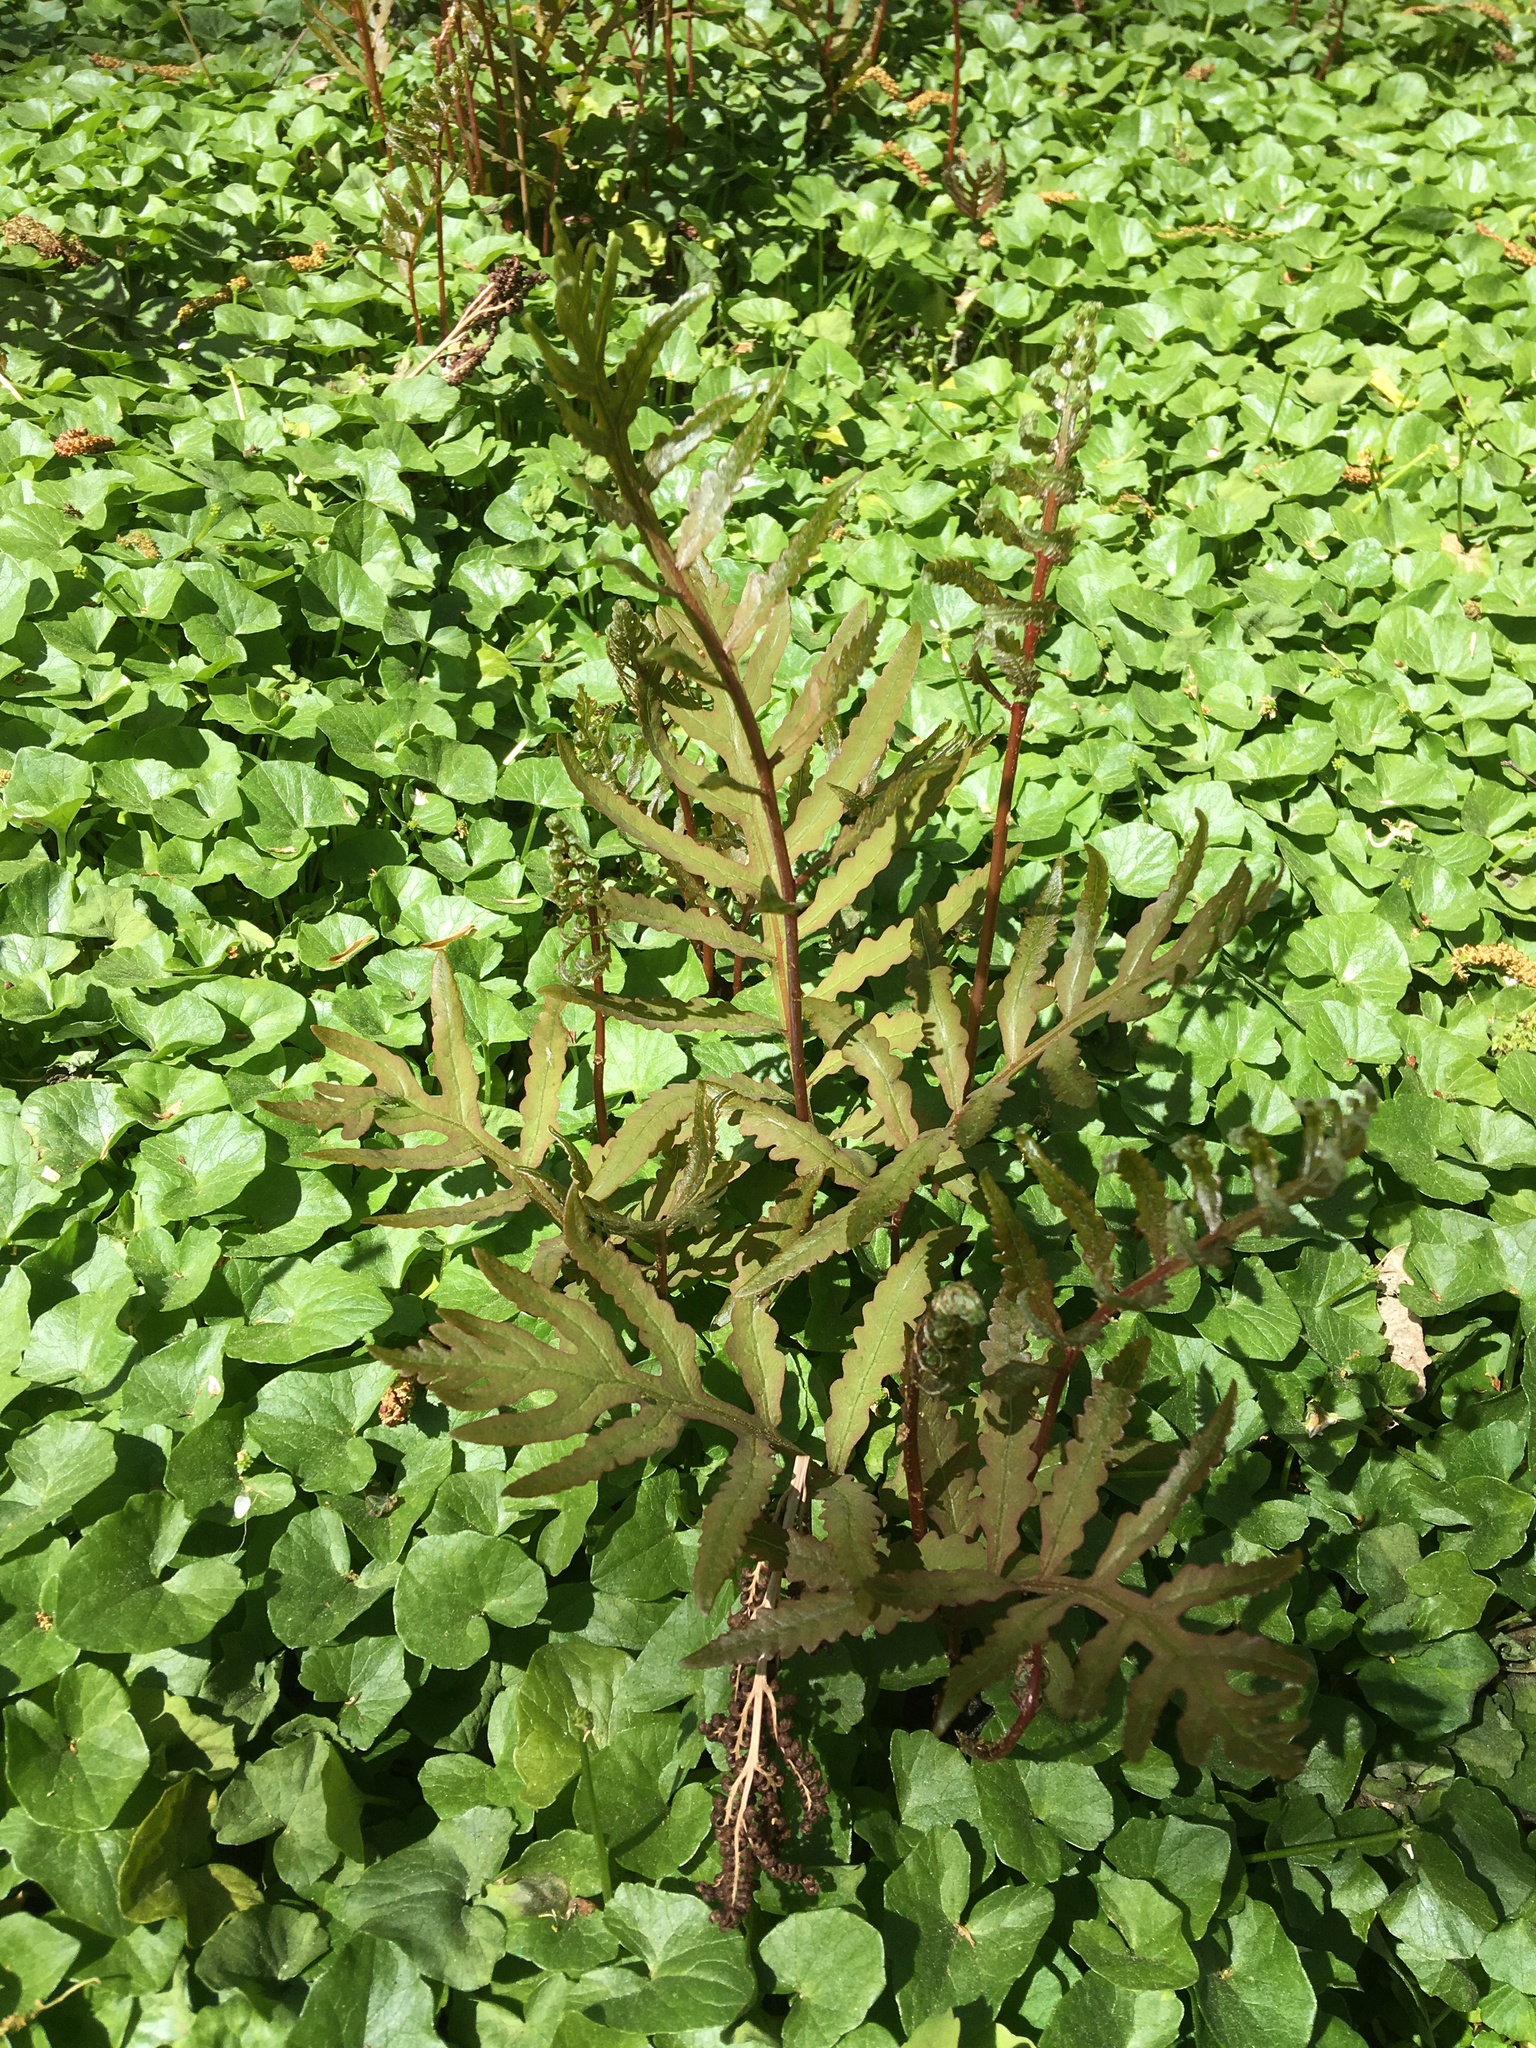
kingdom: Plantae
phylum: Tracheophyta
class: Polypodiopsida
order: Polypodiales
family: Onocleaceae
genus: Onoclea
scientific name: Onoclea sensibilis
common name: Sensitive fern
